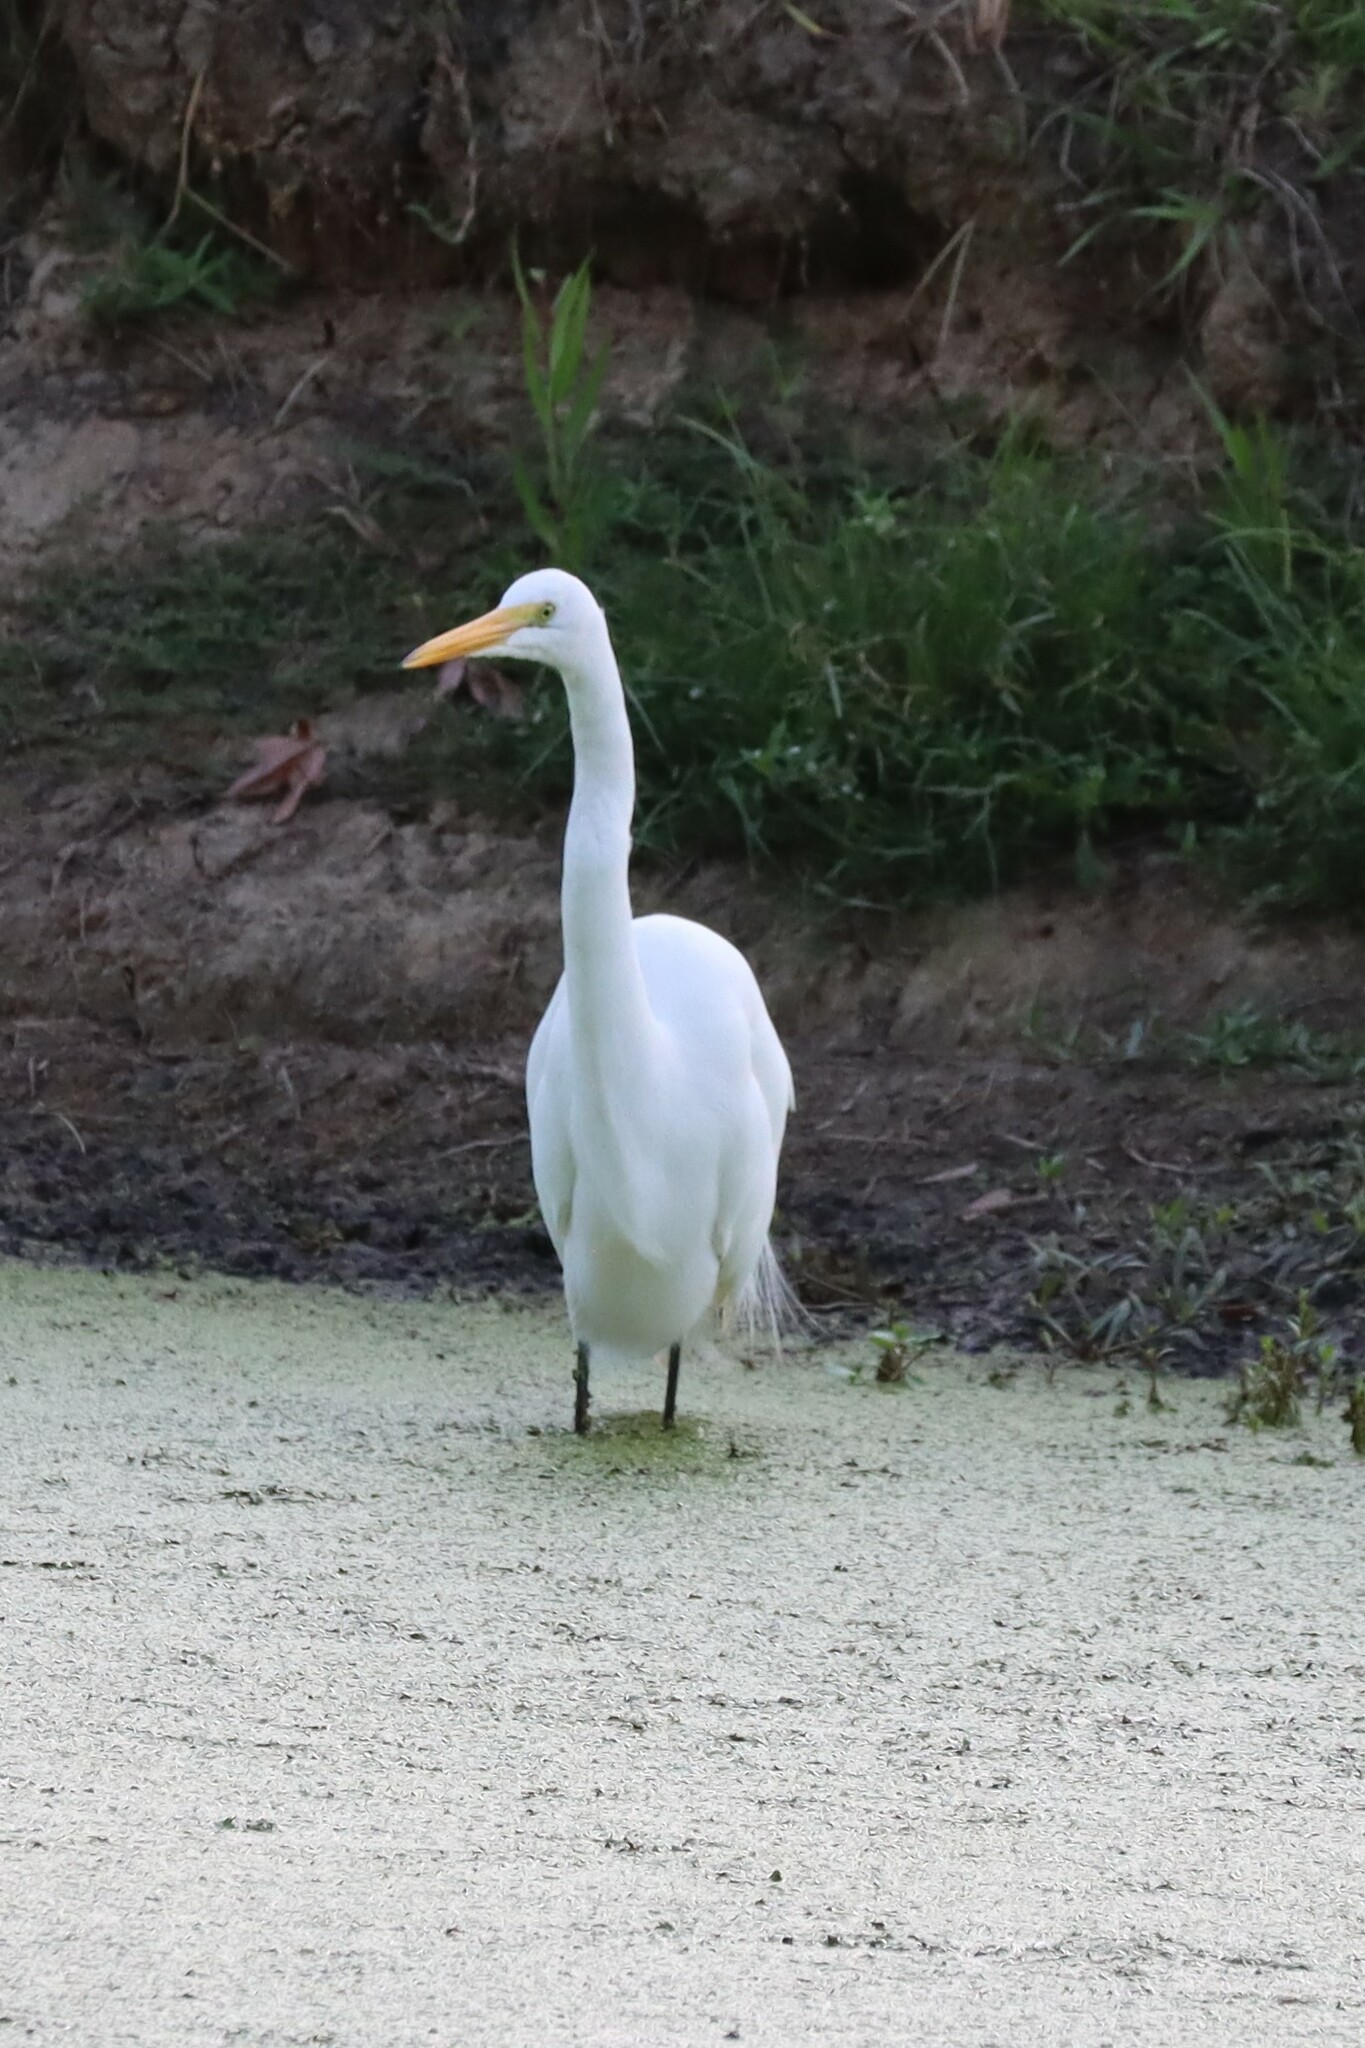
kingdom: Animalia
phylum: Chordata
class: Aves
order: Pelecaniformes
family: Ardeidae
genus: Ardea
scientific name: Ardea alba
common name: Great egret
